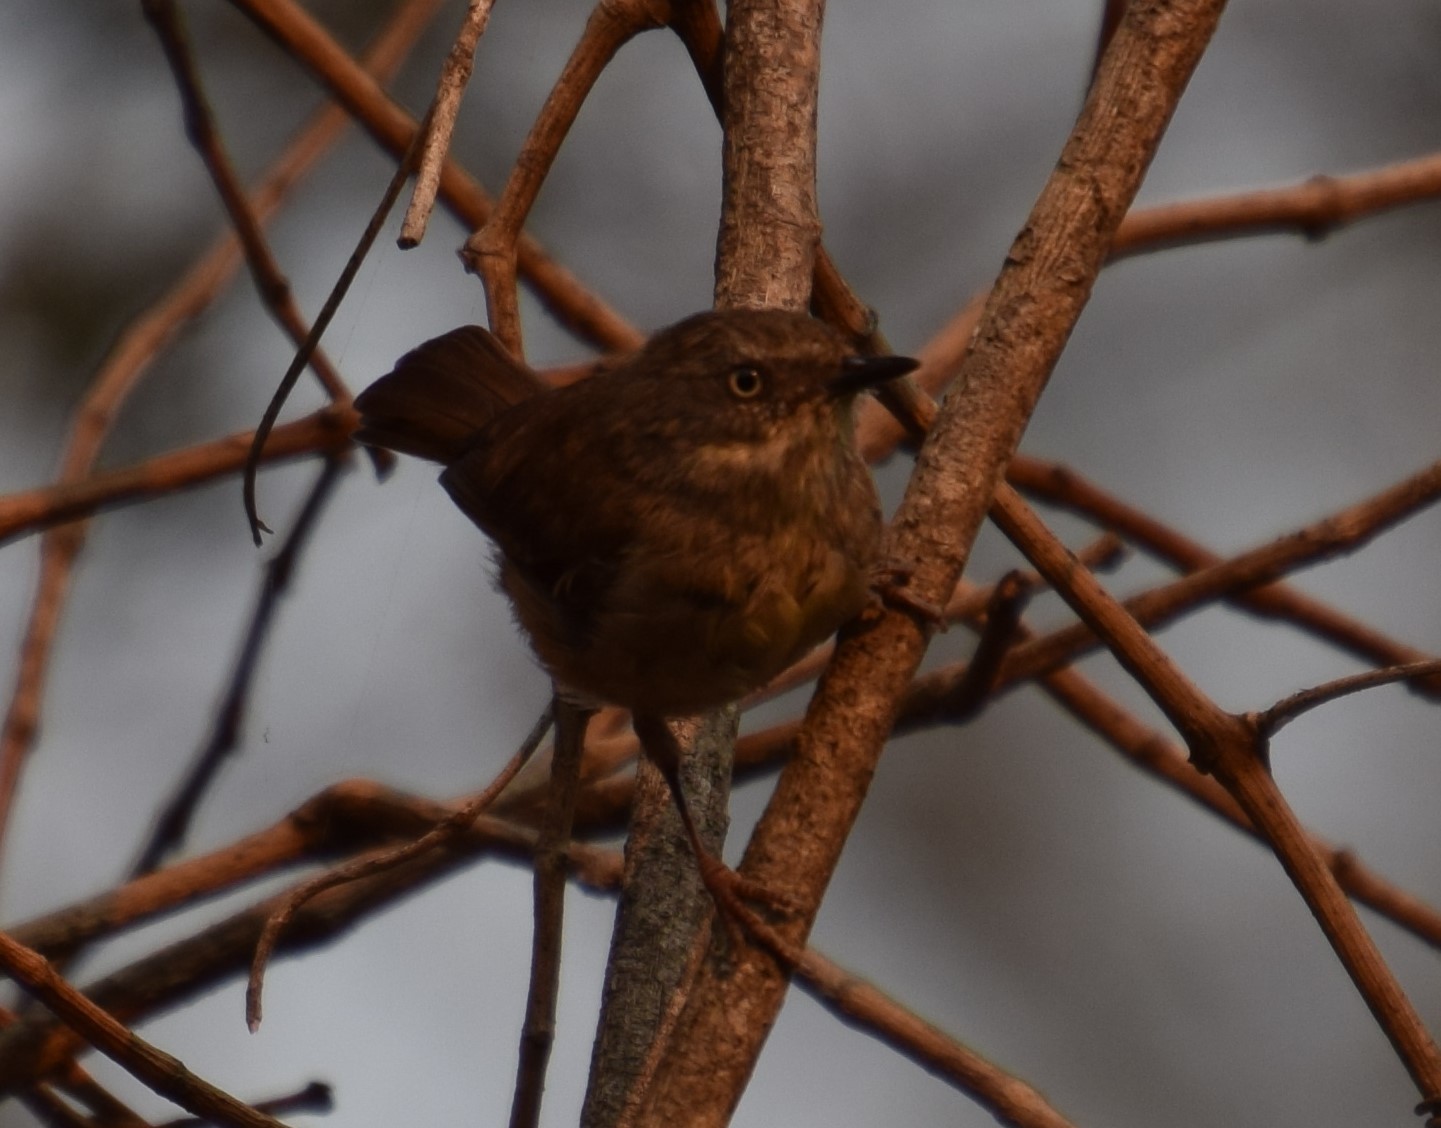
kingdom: Animalia
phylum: Chordata
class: Aves
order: Passeriformes
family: Acanthizidae
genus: Sericornis
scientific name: Sericornis frontalis
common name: White-browed scrubwren
